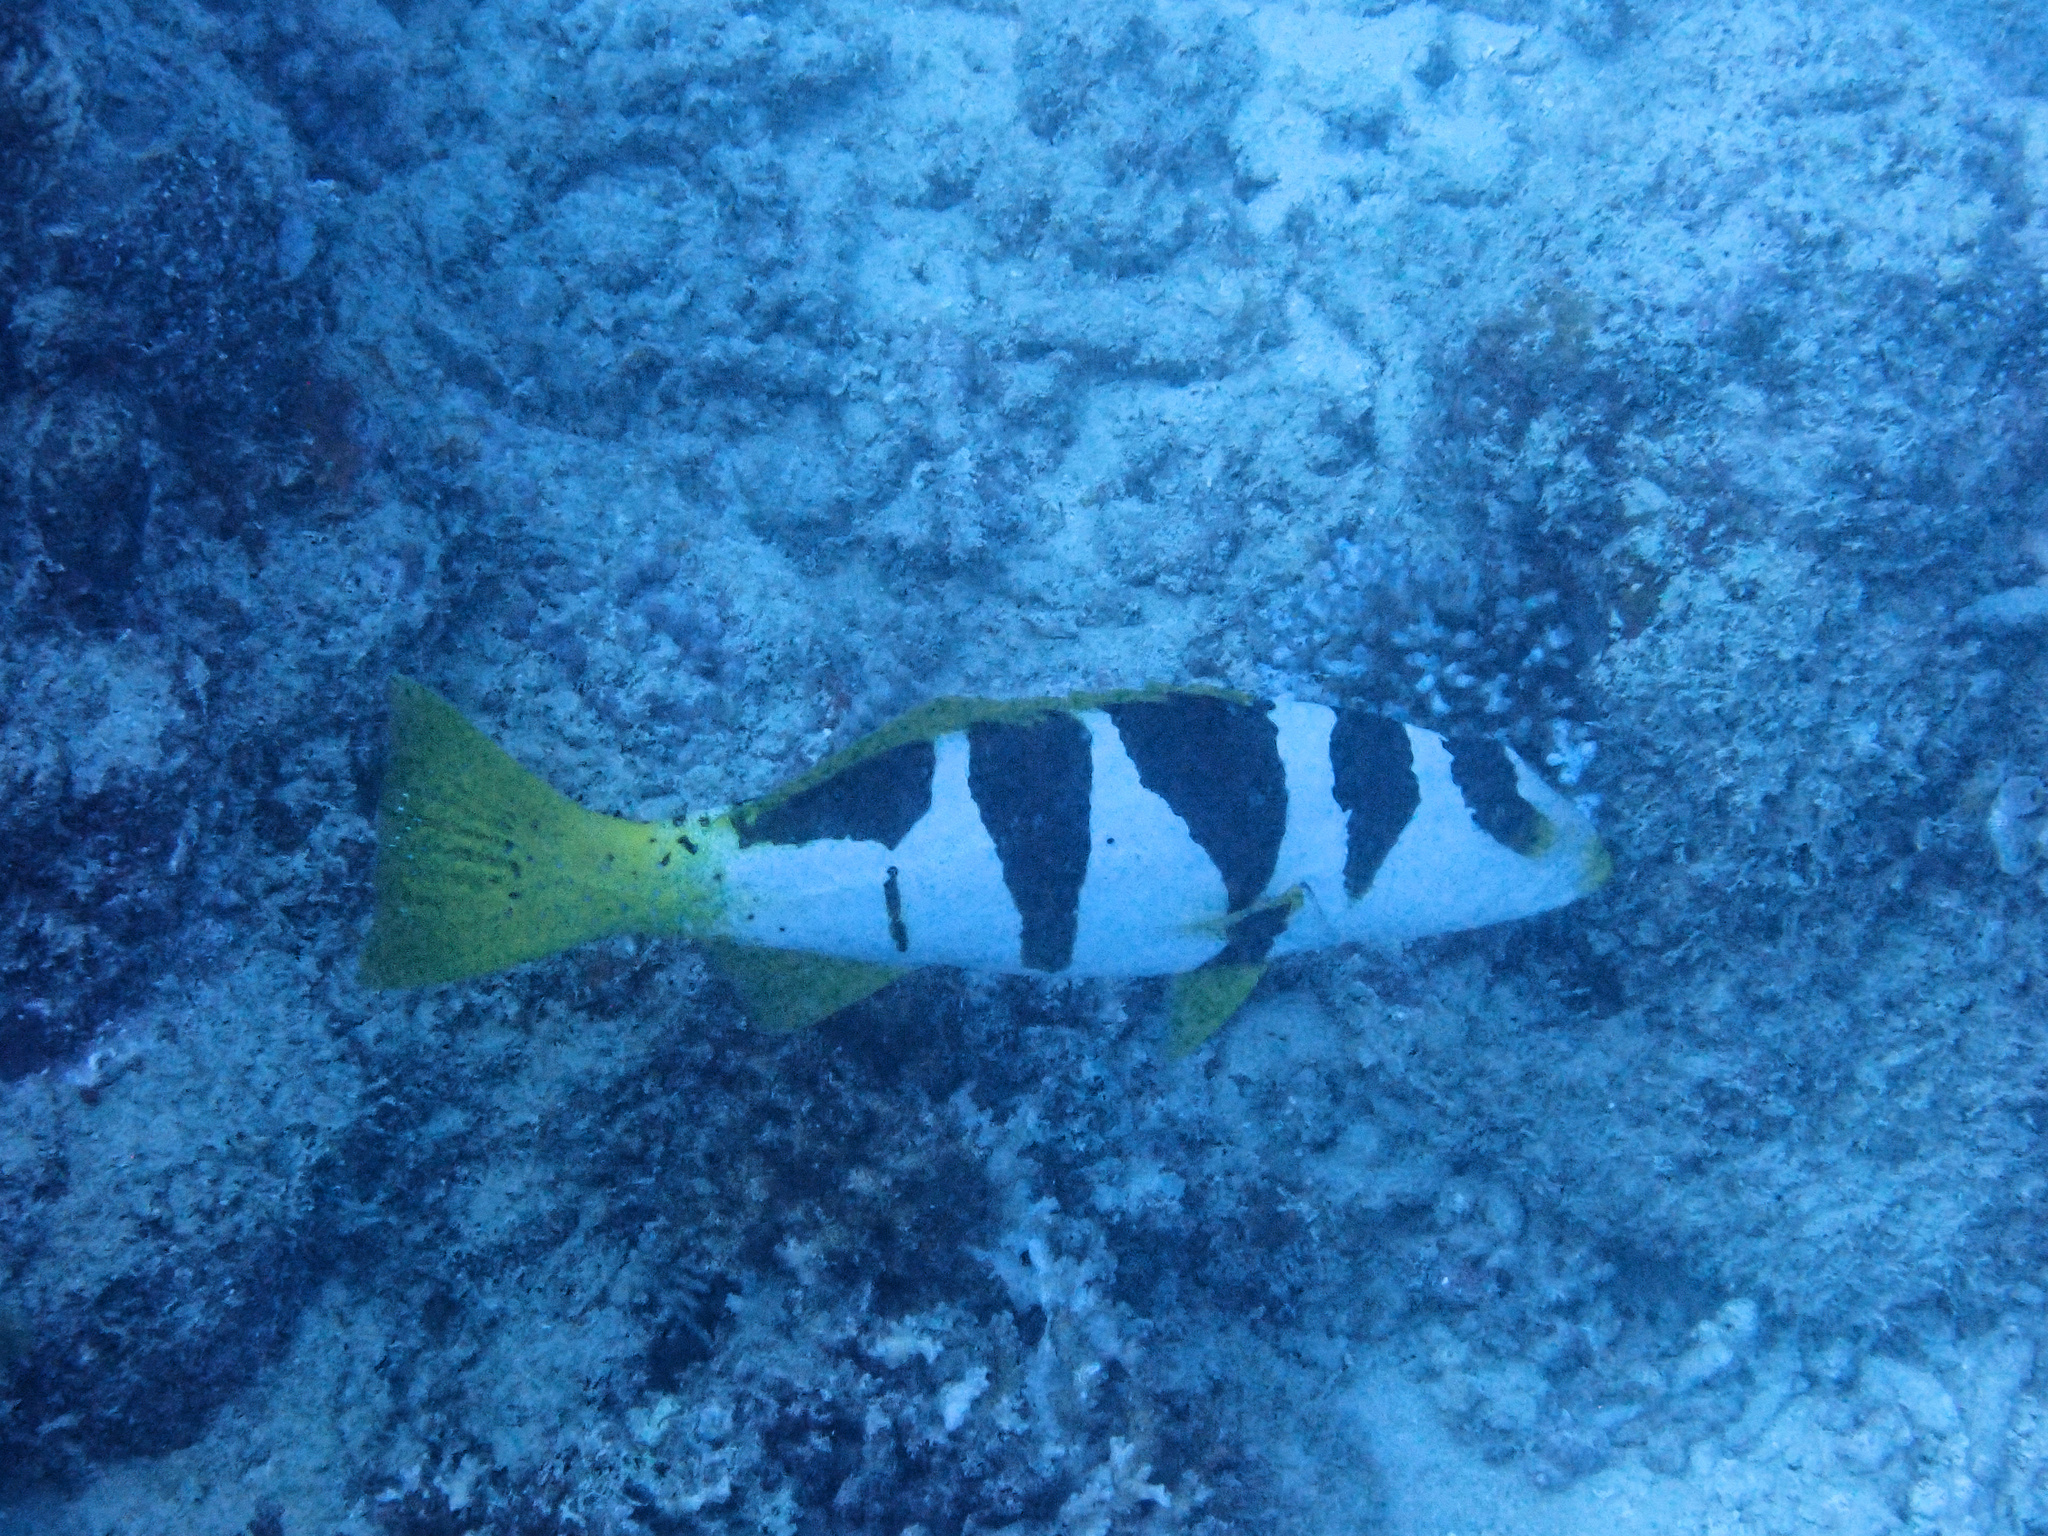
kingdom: Animalia
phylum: Chordata
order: Perciformes
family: Serranidae
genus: Plectropomus
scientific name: Plectropomus laevis
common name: Chinese footballer
